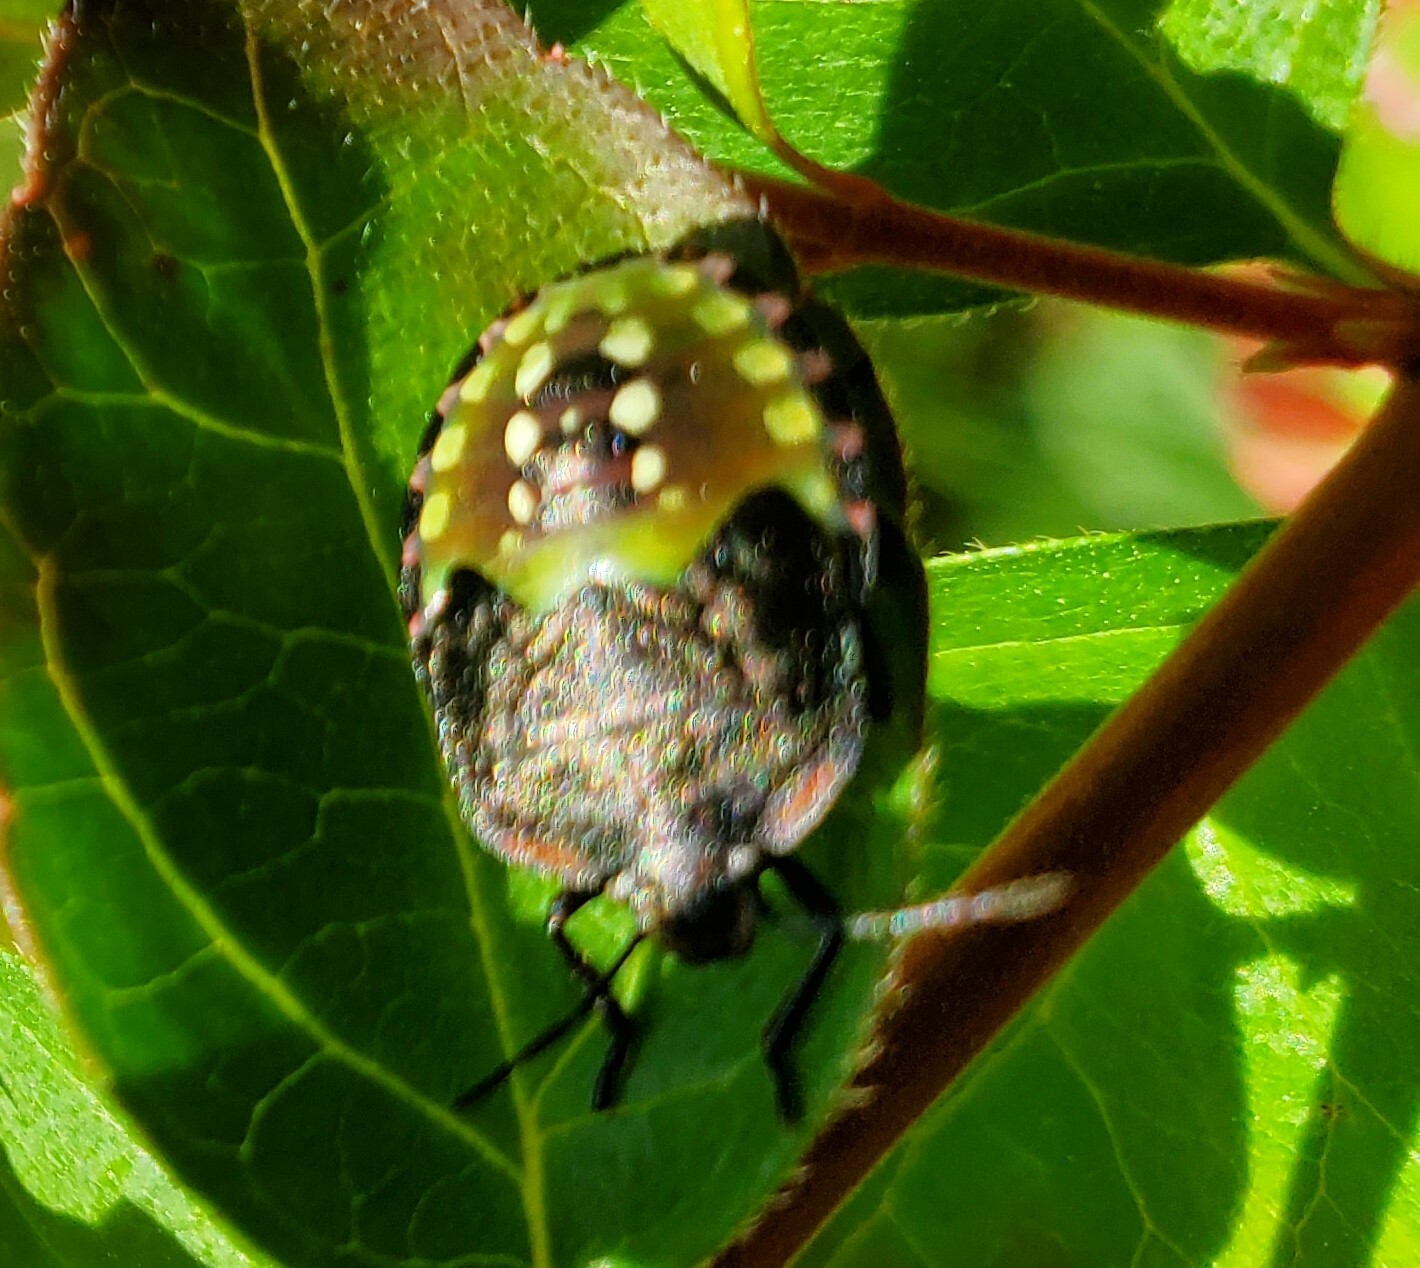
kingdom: Animalia
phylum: Arthropoda
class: Insecta
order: Hemiptera
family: Pentatomidae
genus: Nezara
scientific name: Nezara viridula
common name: Southern green stink bug
